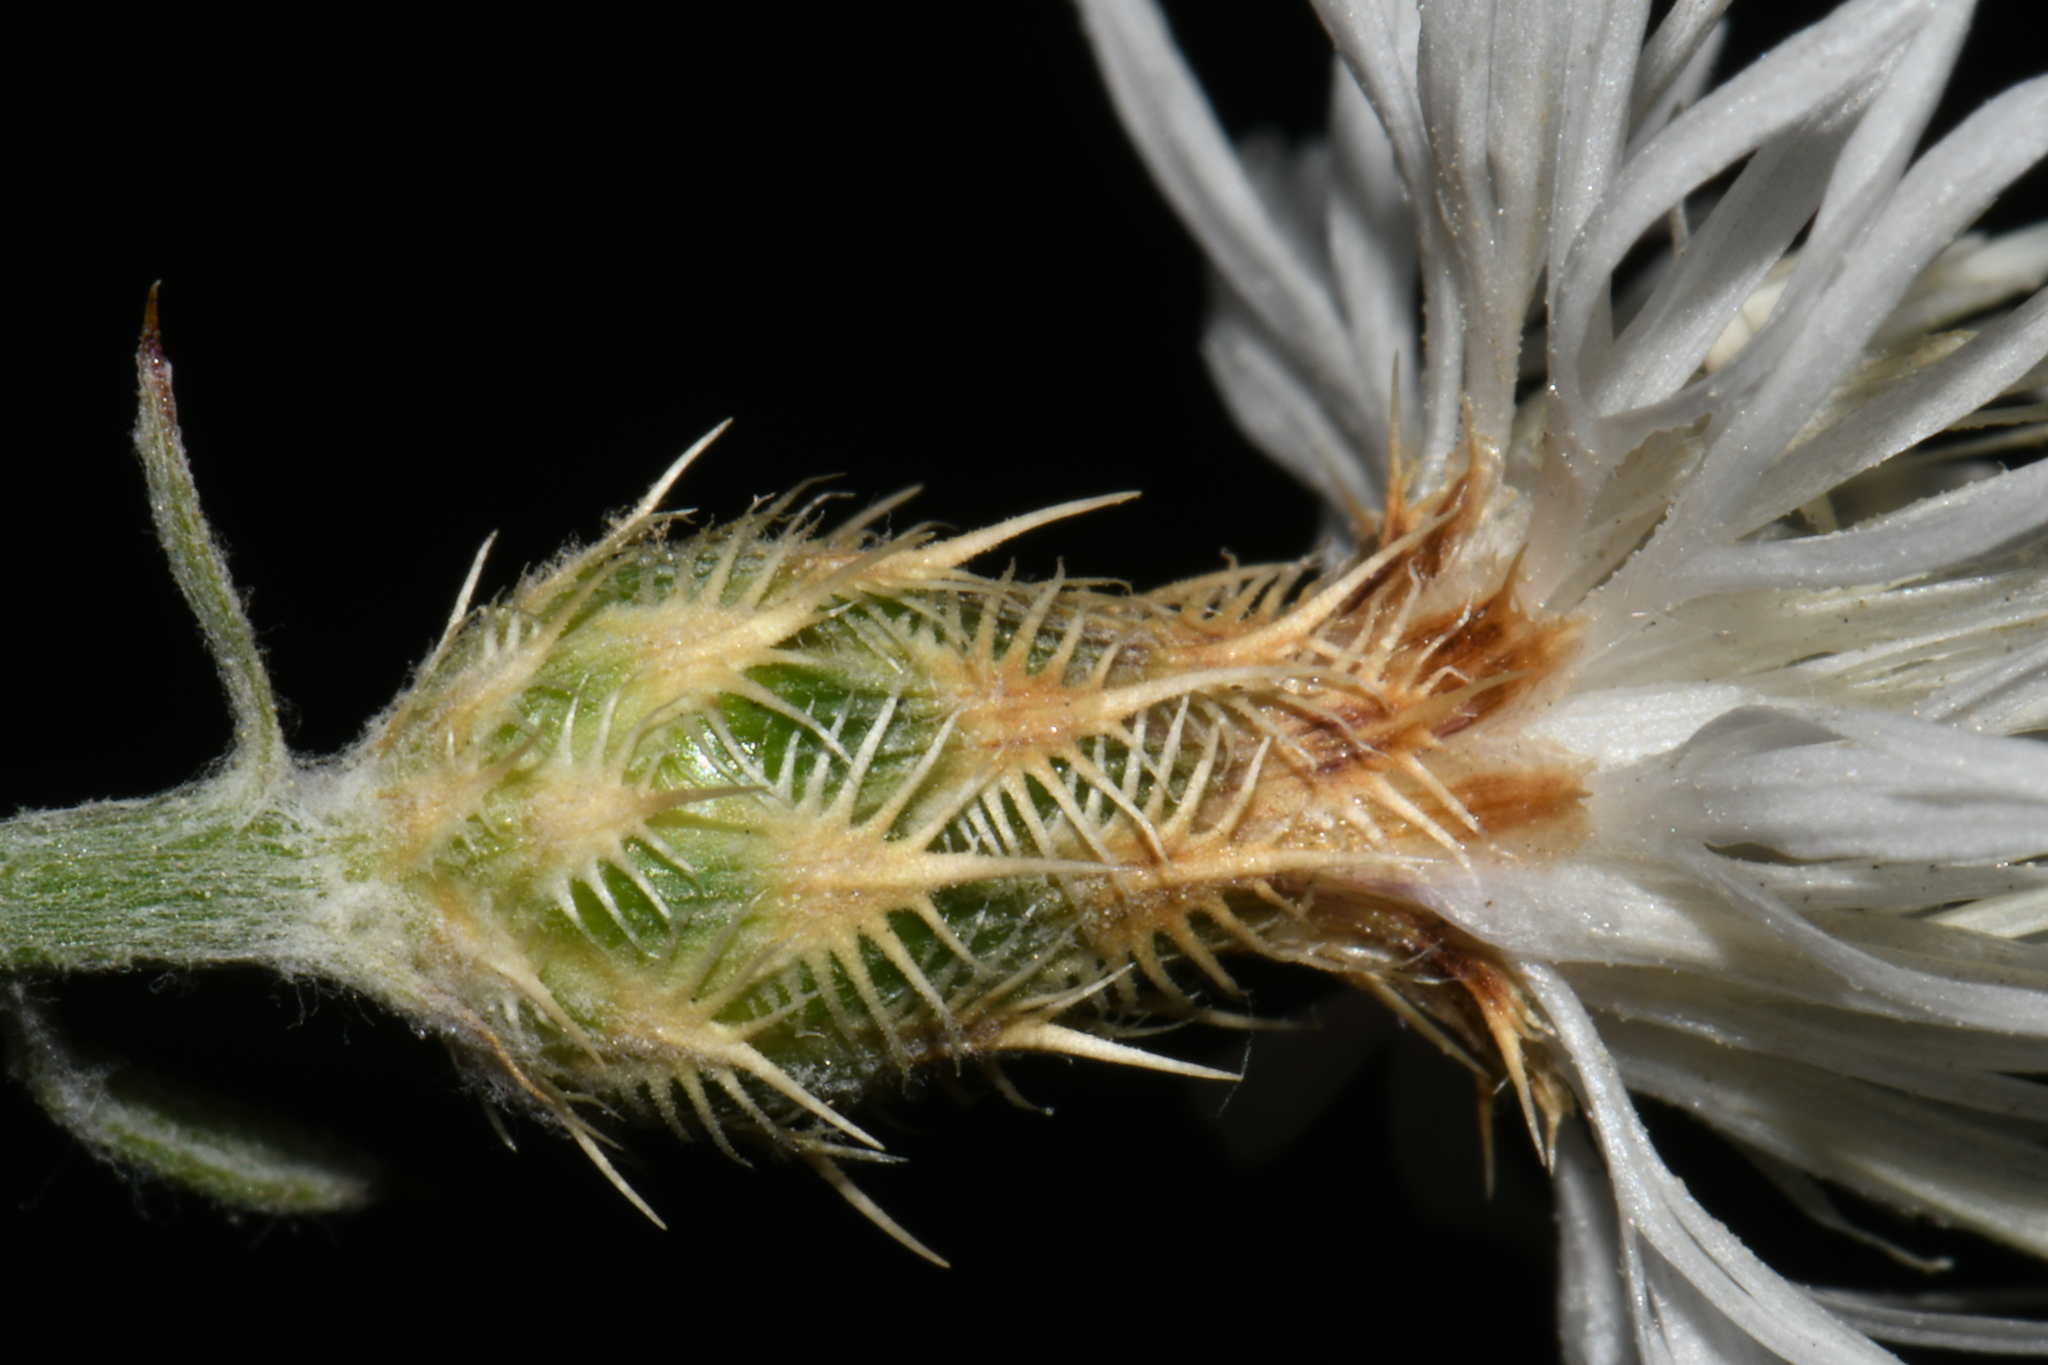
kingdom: Plantae
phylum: Tracheophyta
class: Magnoliopsida
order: Asterales
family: Asteraceae
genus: Centaurea
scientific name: Centaurea diffusa
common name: Diffuse knapweed
